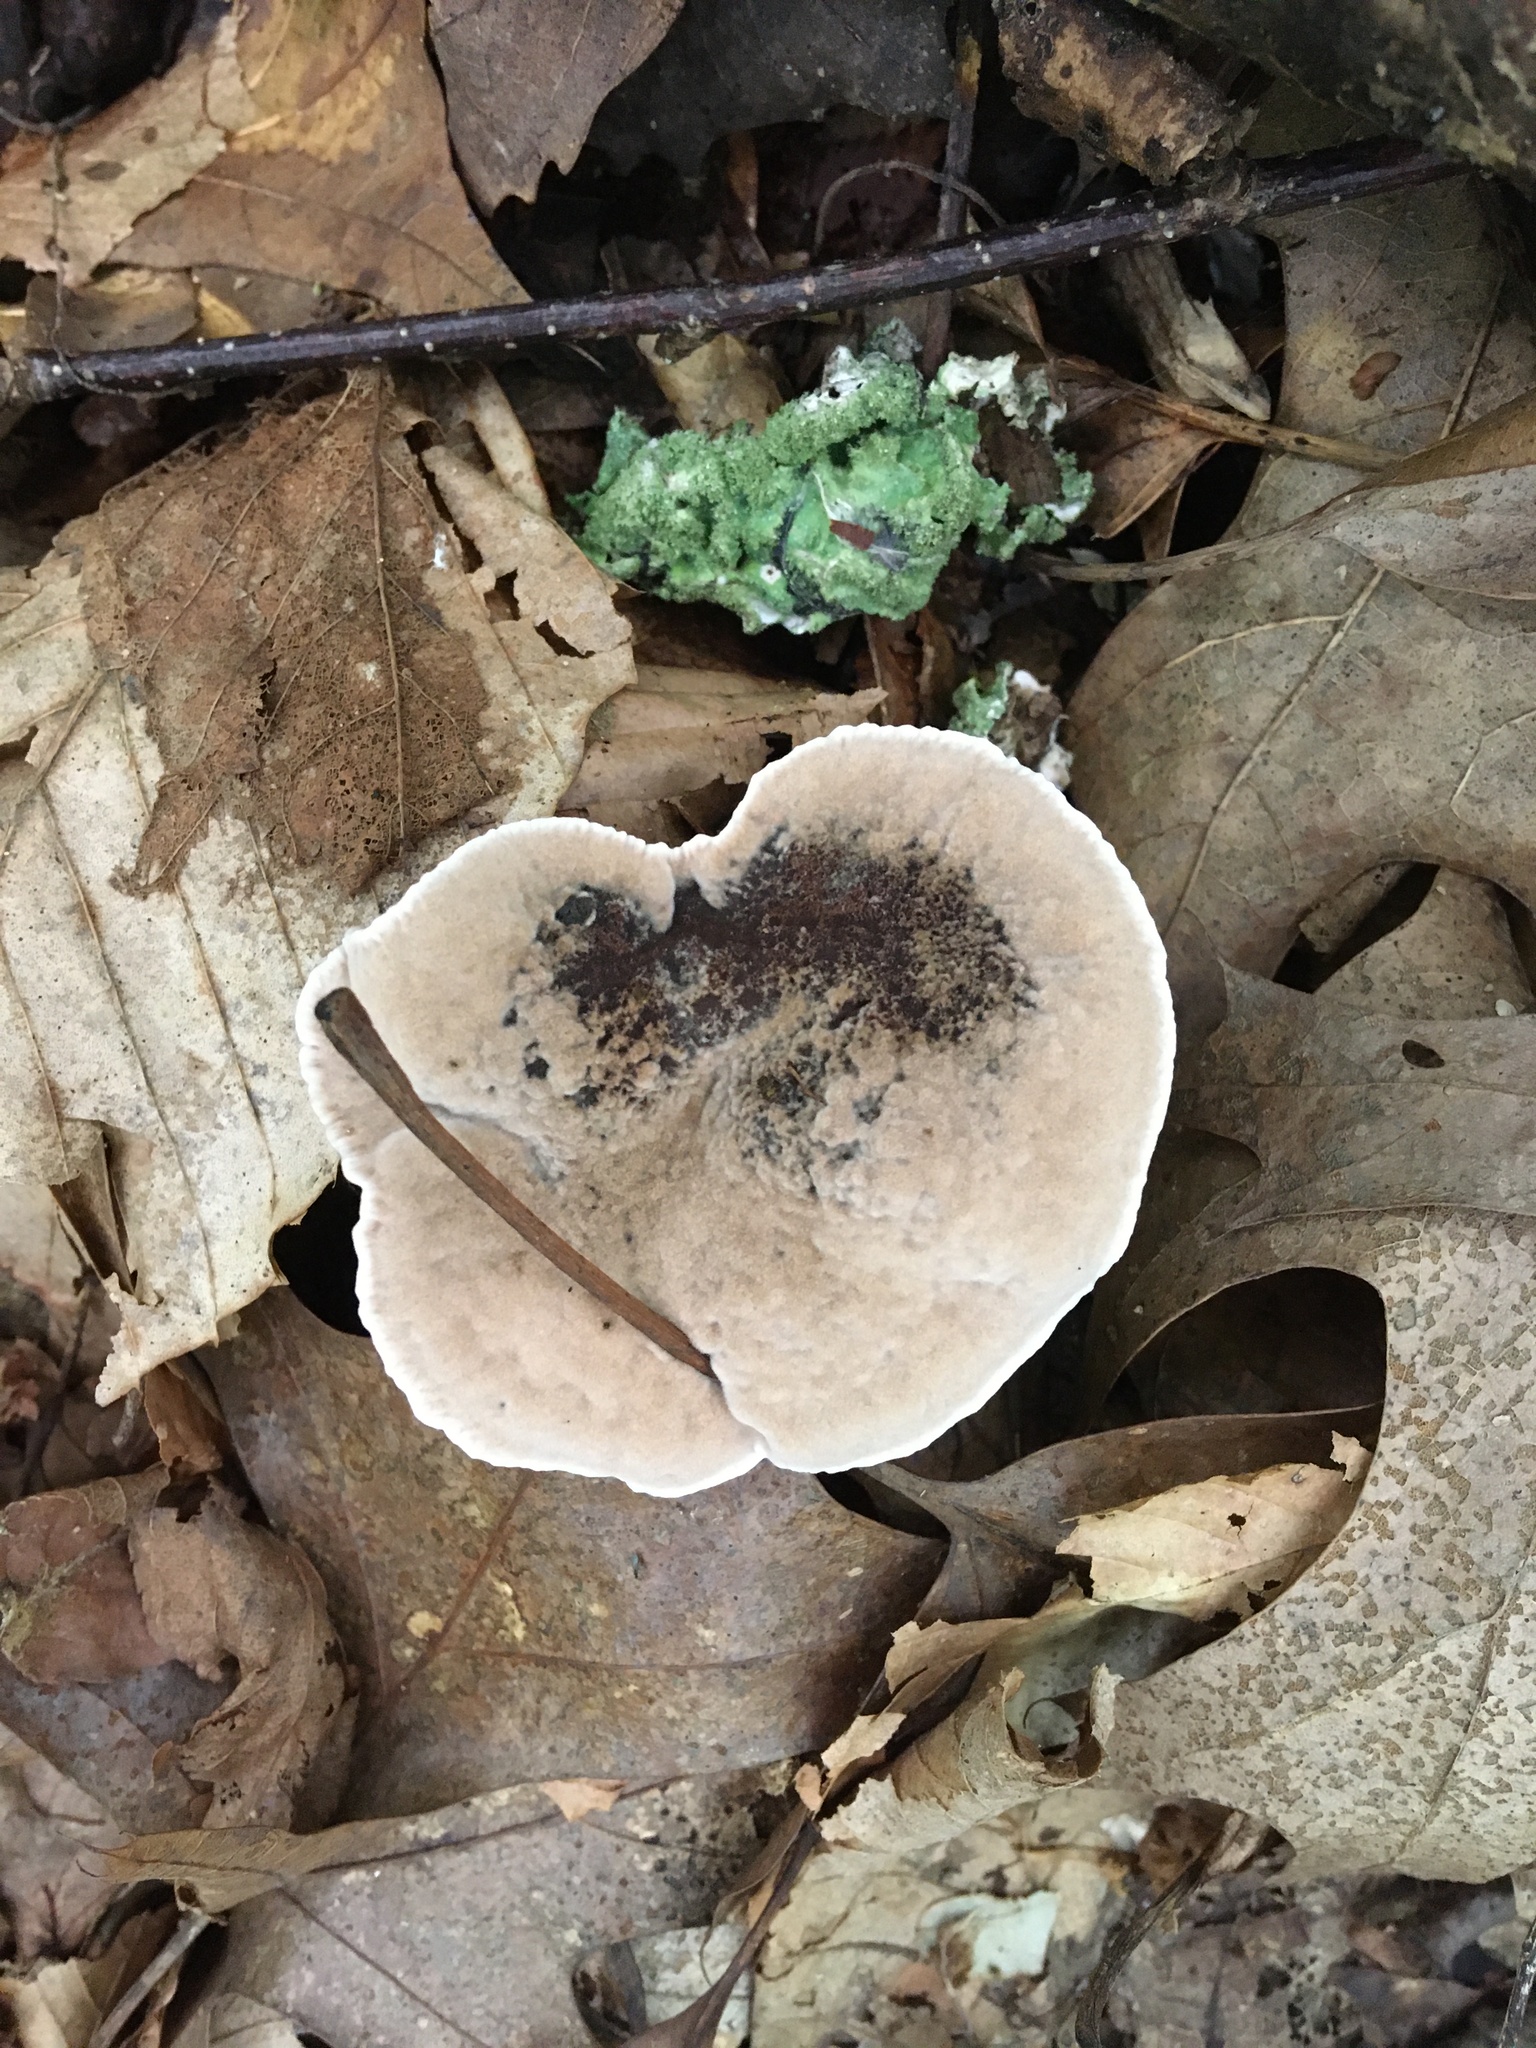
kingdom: Fungi
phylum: Basidiomycota
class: Agaricomycetes
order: Thelephorales
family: Bankeraceae
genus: Hydnellum
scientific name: Hydnellum spongiosipes
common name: Velvet tooth
